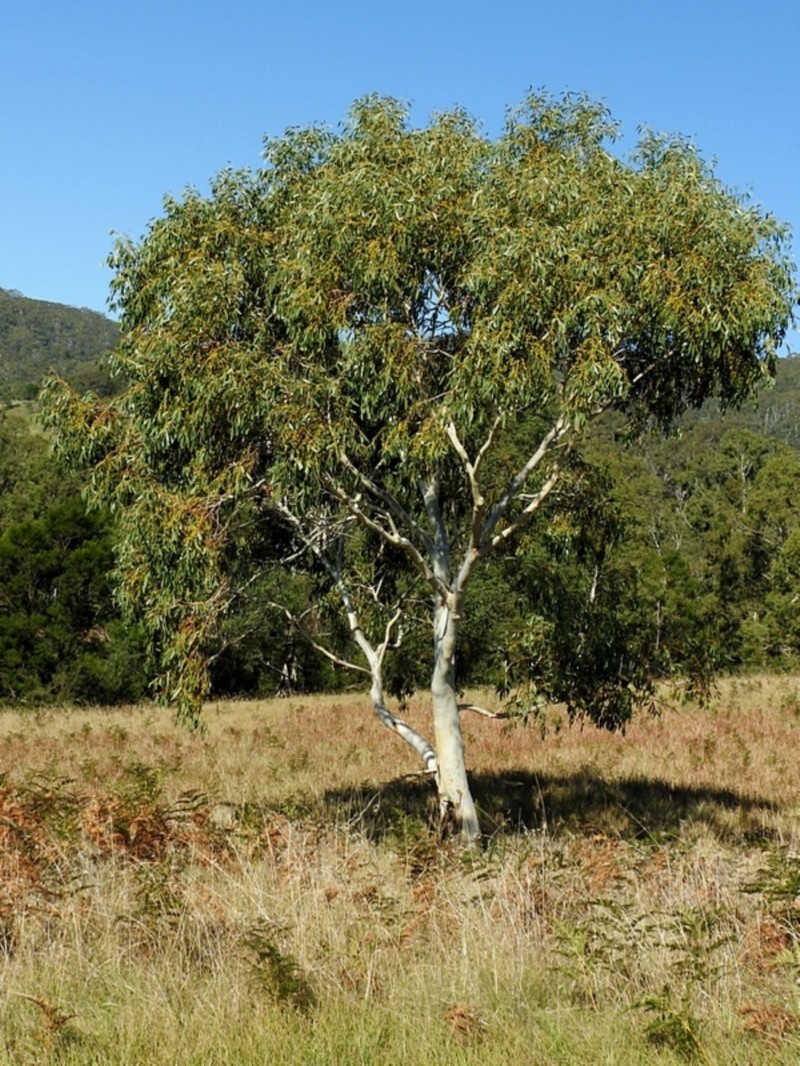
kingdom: Plantae
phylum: Tracheophyta
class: Magnoliopsida
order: Myrtales
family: Myrtaceae
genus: Eucalyptus
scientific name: Eucalyptus pauciflora
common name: Snow gum
